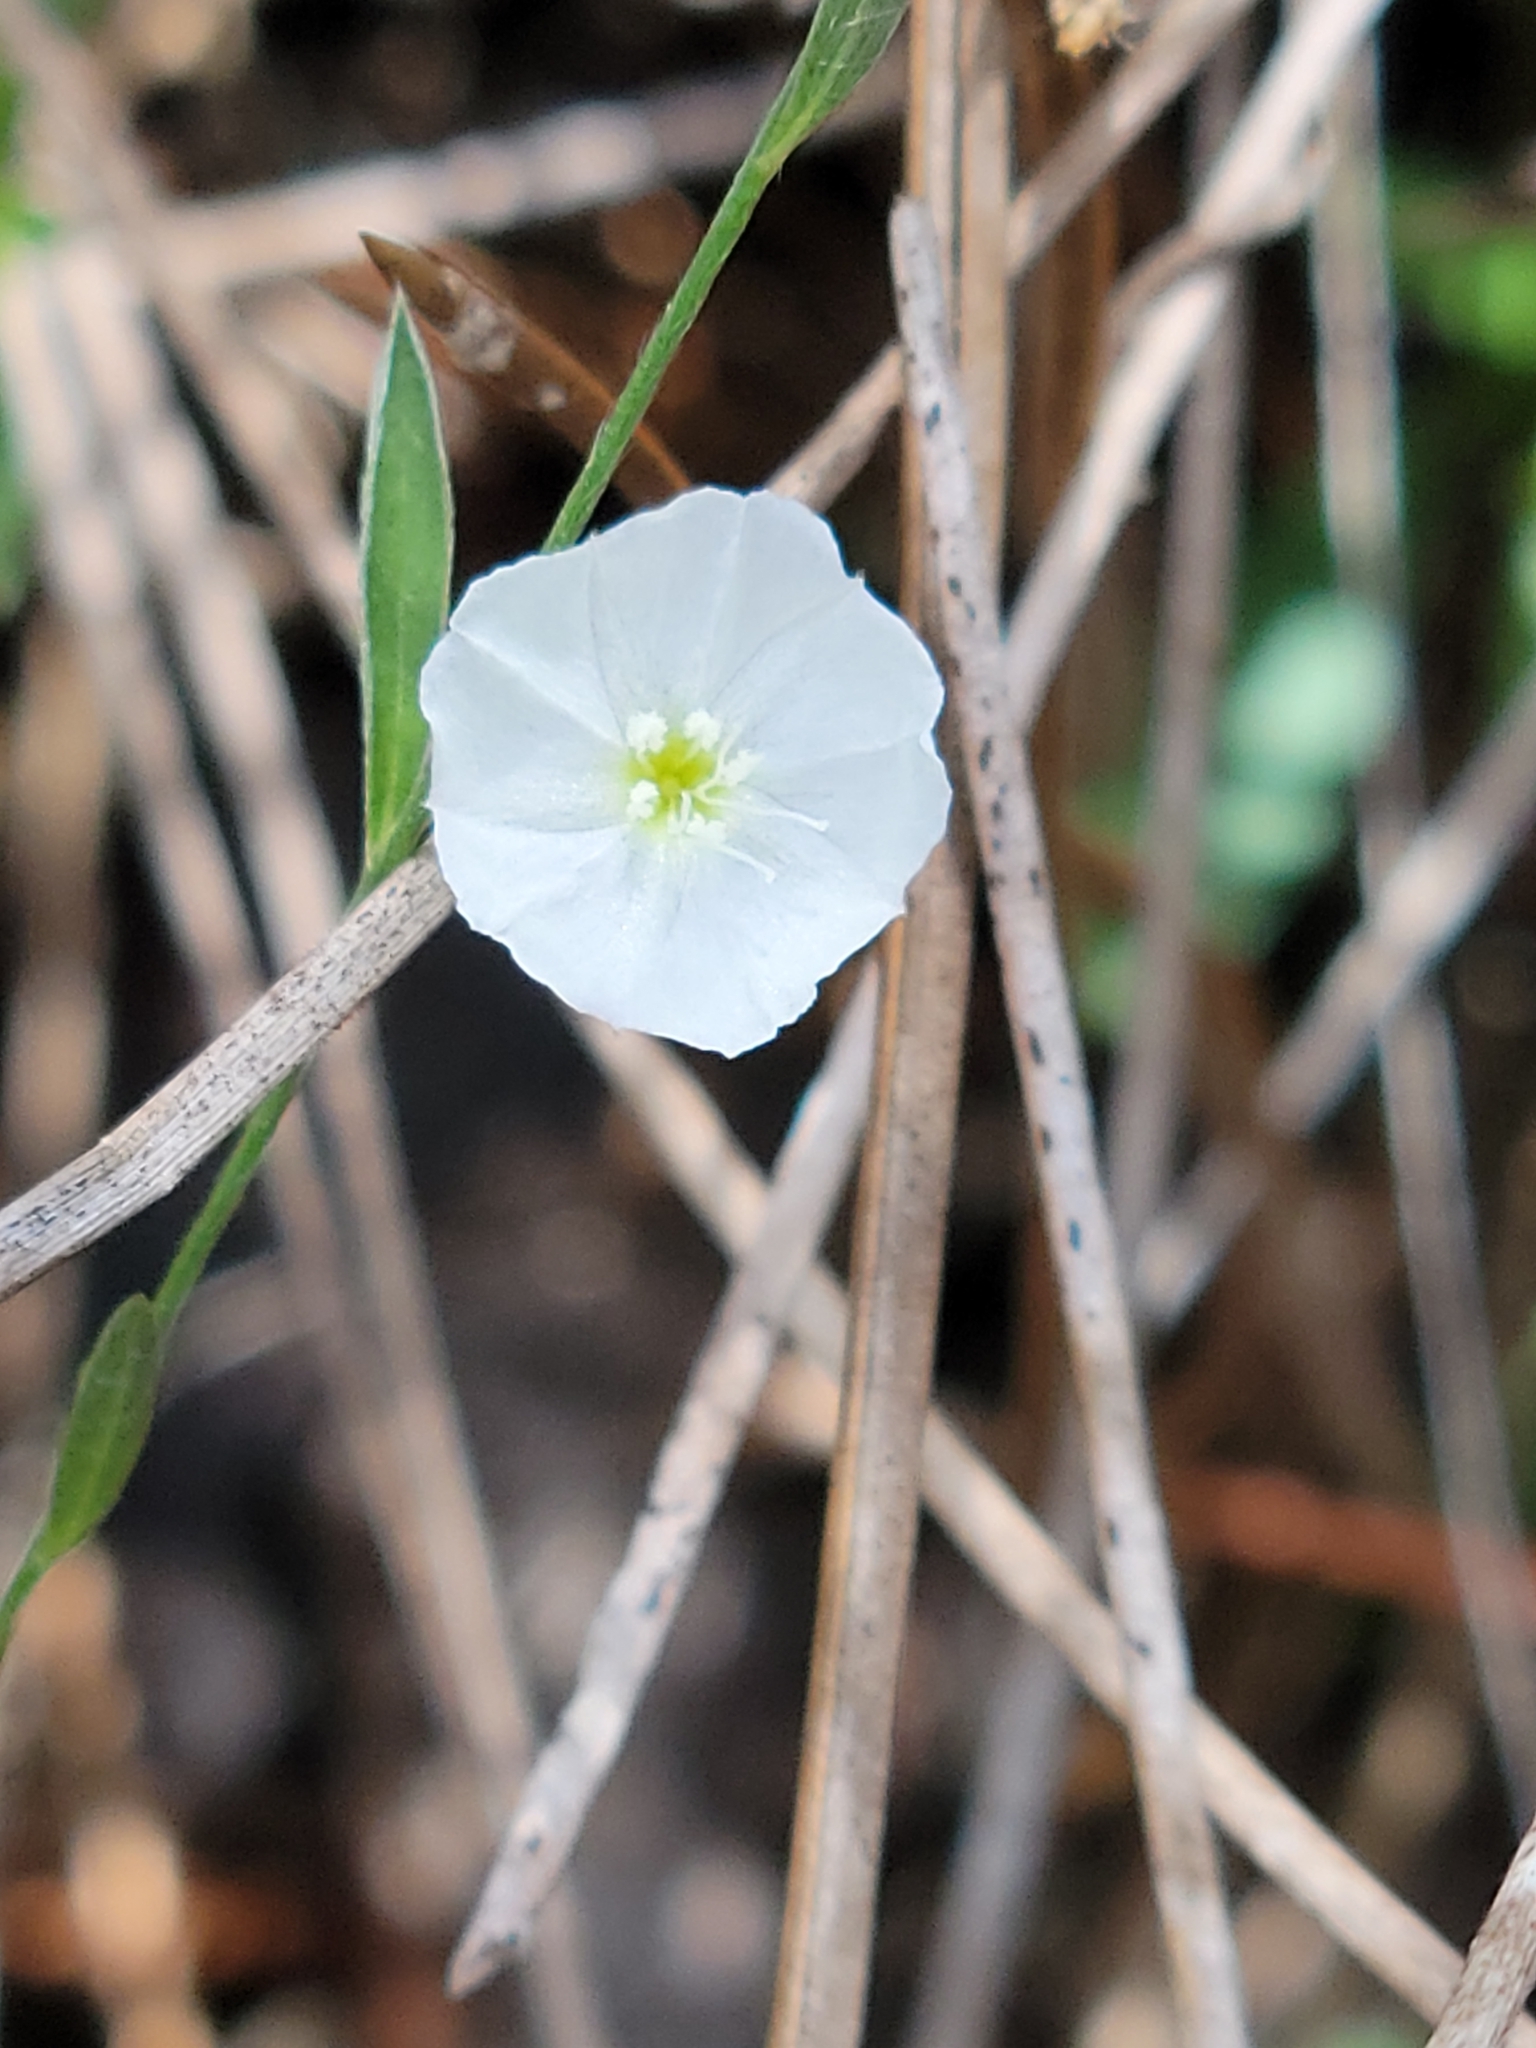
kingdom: Plantae
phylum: Tracheophyta
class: Magnoliopsida
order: Solanales
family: Convolvulaceae
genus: Evolvulus
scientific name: Evolvulus sericeus
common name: Blue dots
